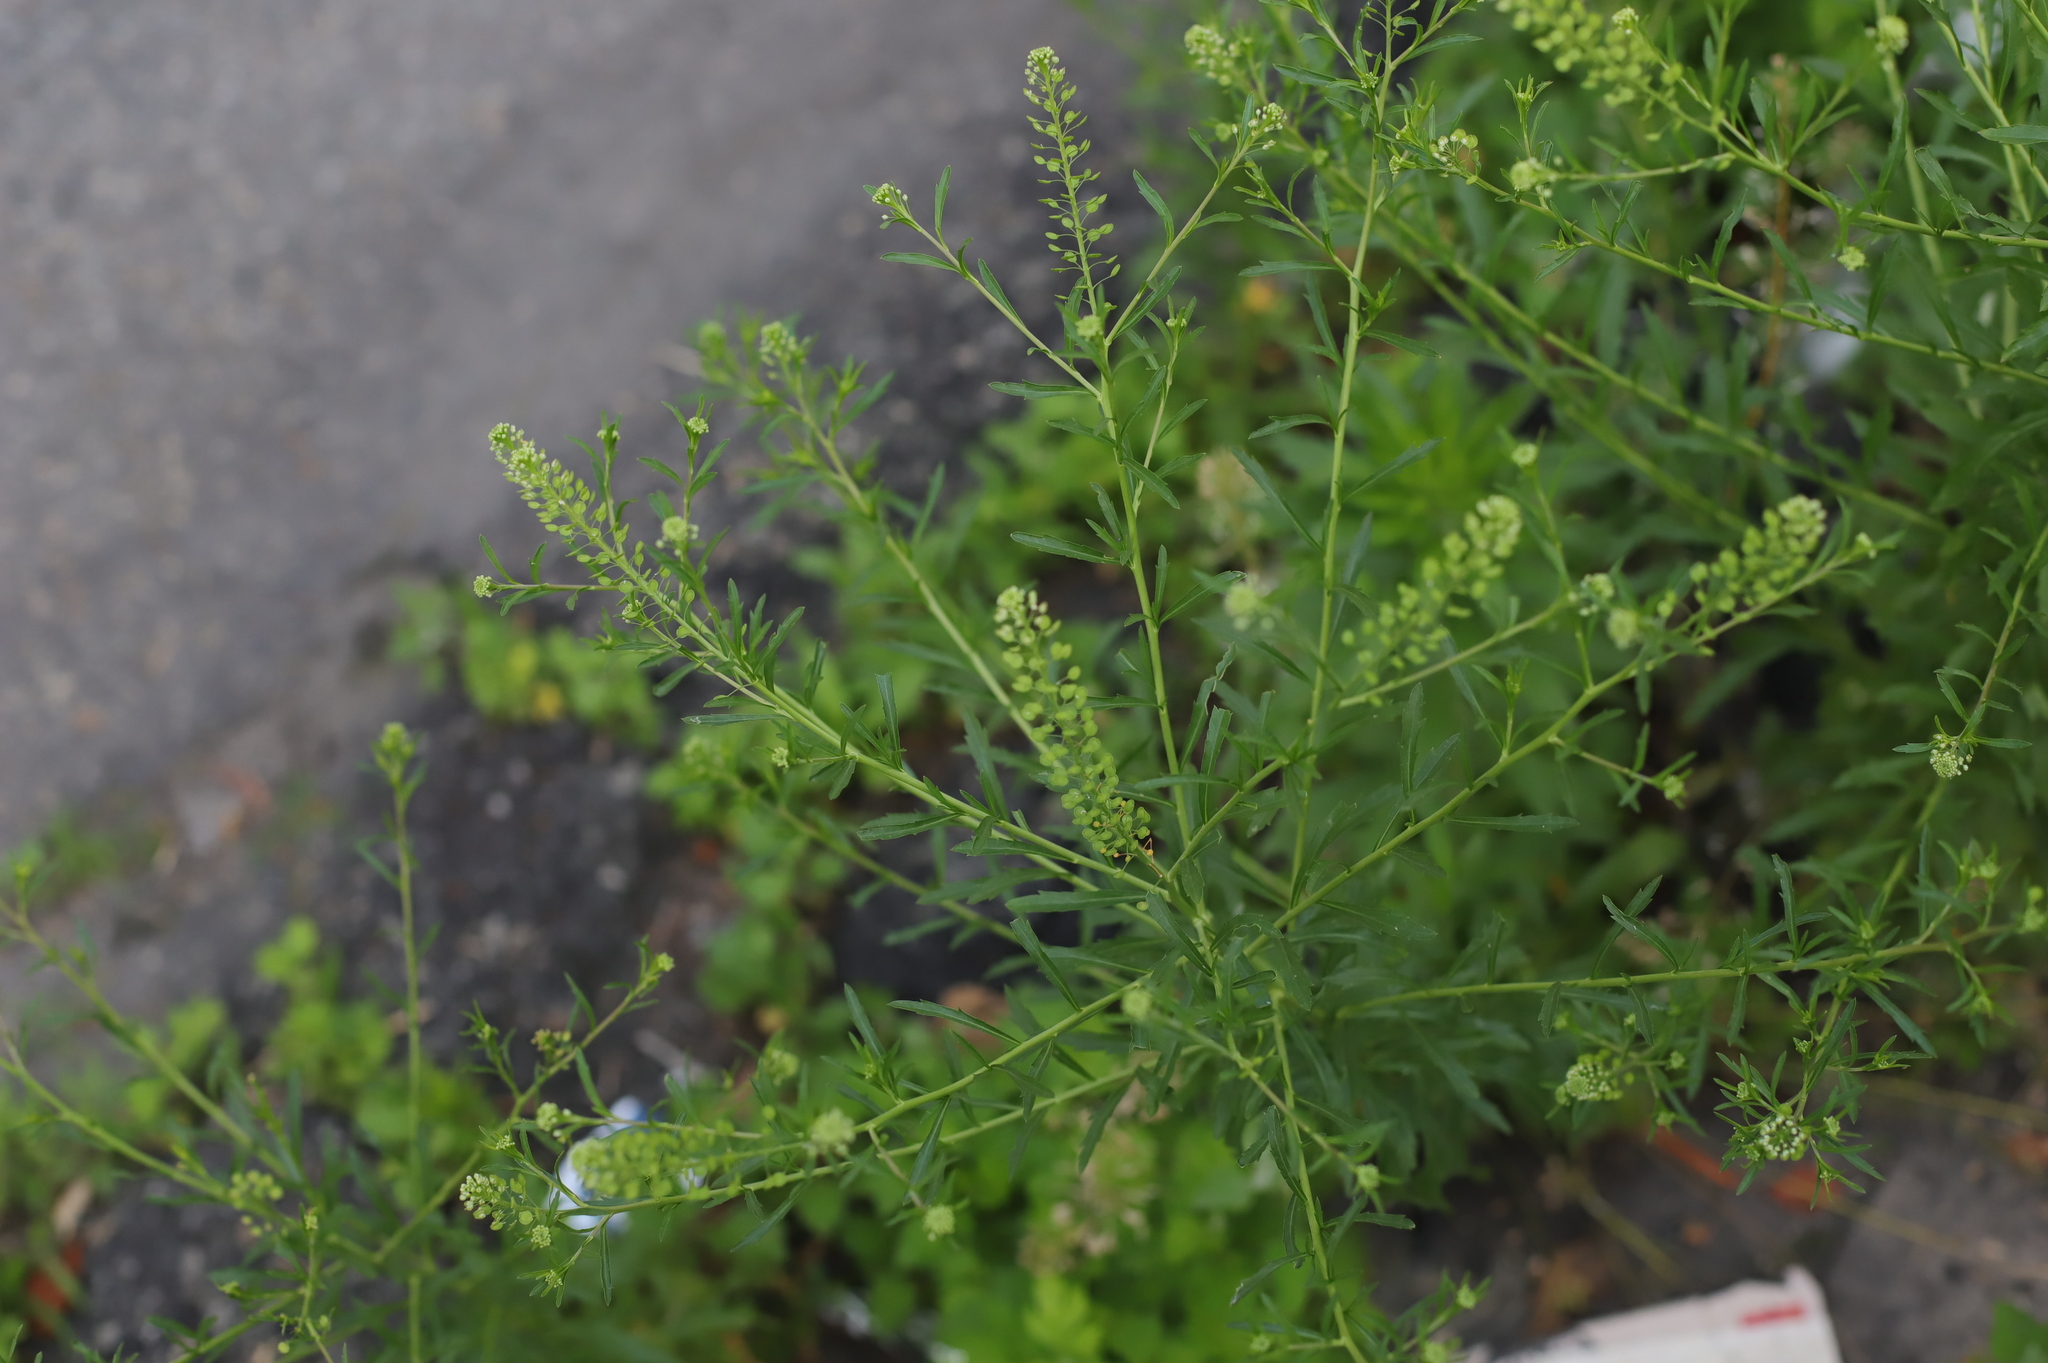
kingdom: Plantae
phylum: Tracheophyta
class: Magnoliopsida
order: Brassicales
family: Brassicaceae
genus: Lepidium
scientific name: Lepidium virginicum
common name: Least pepperwort
